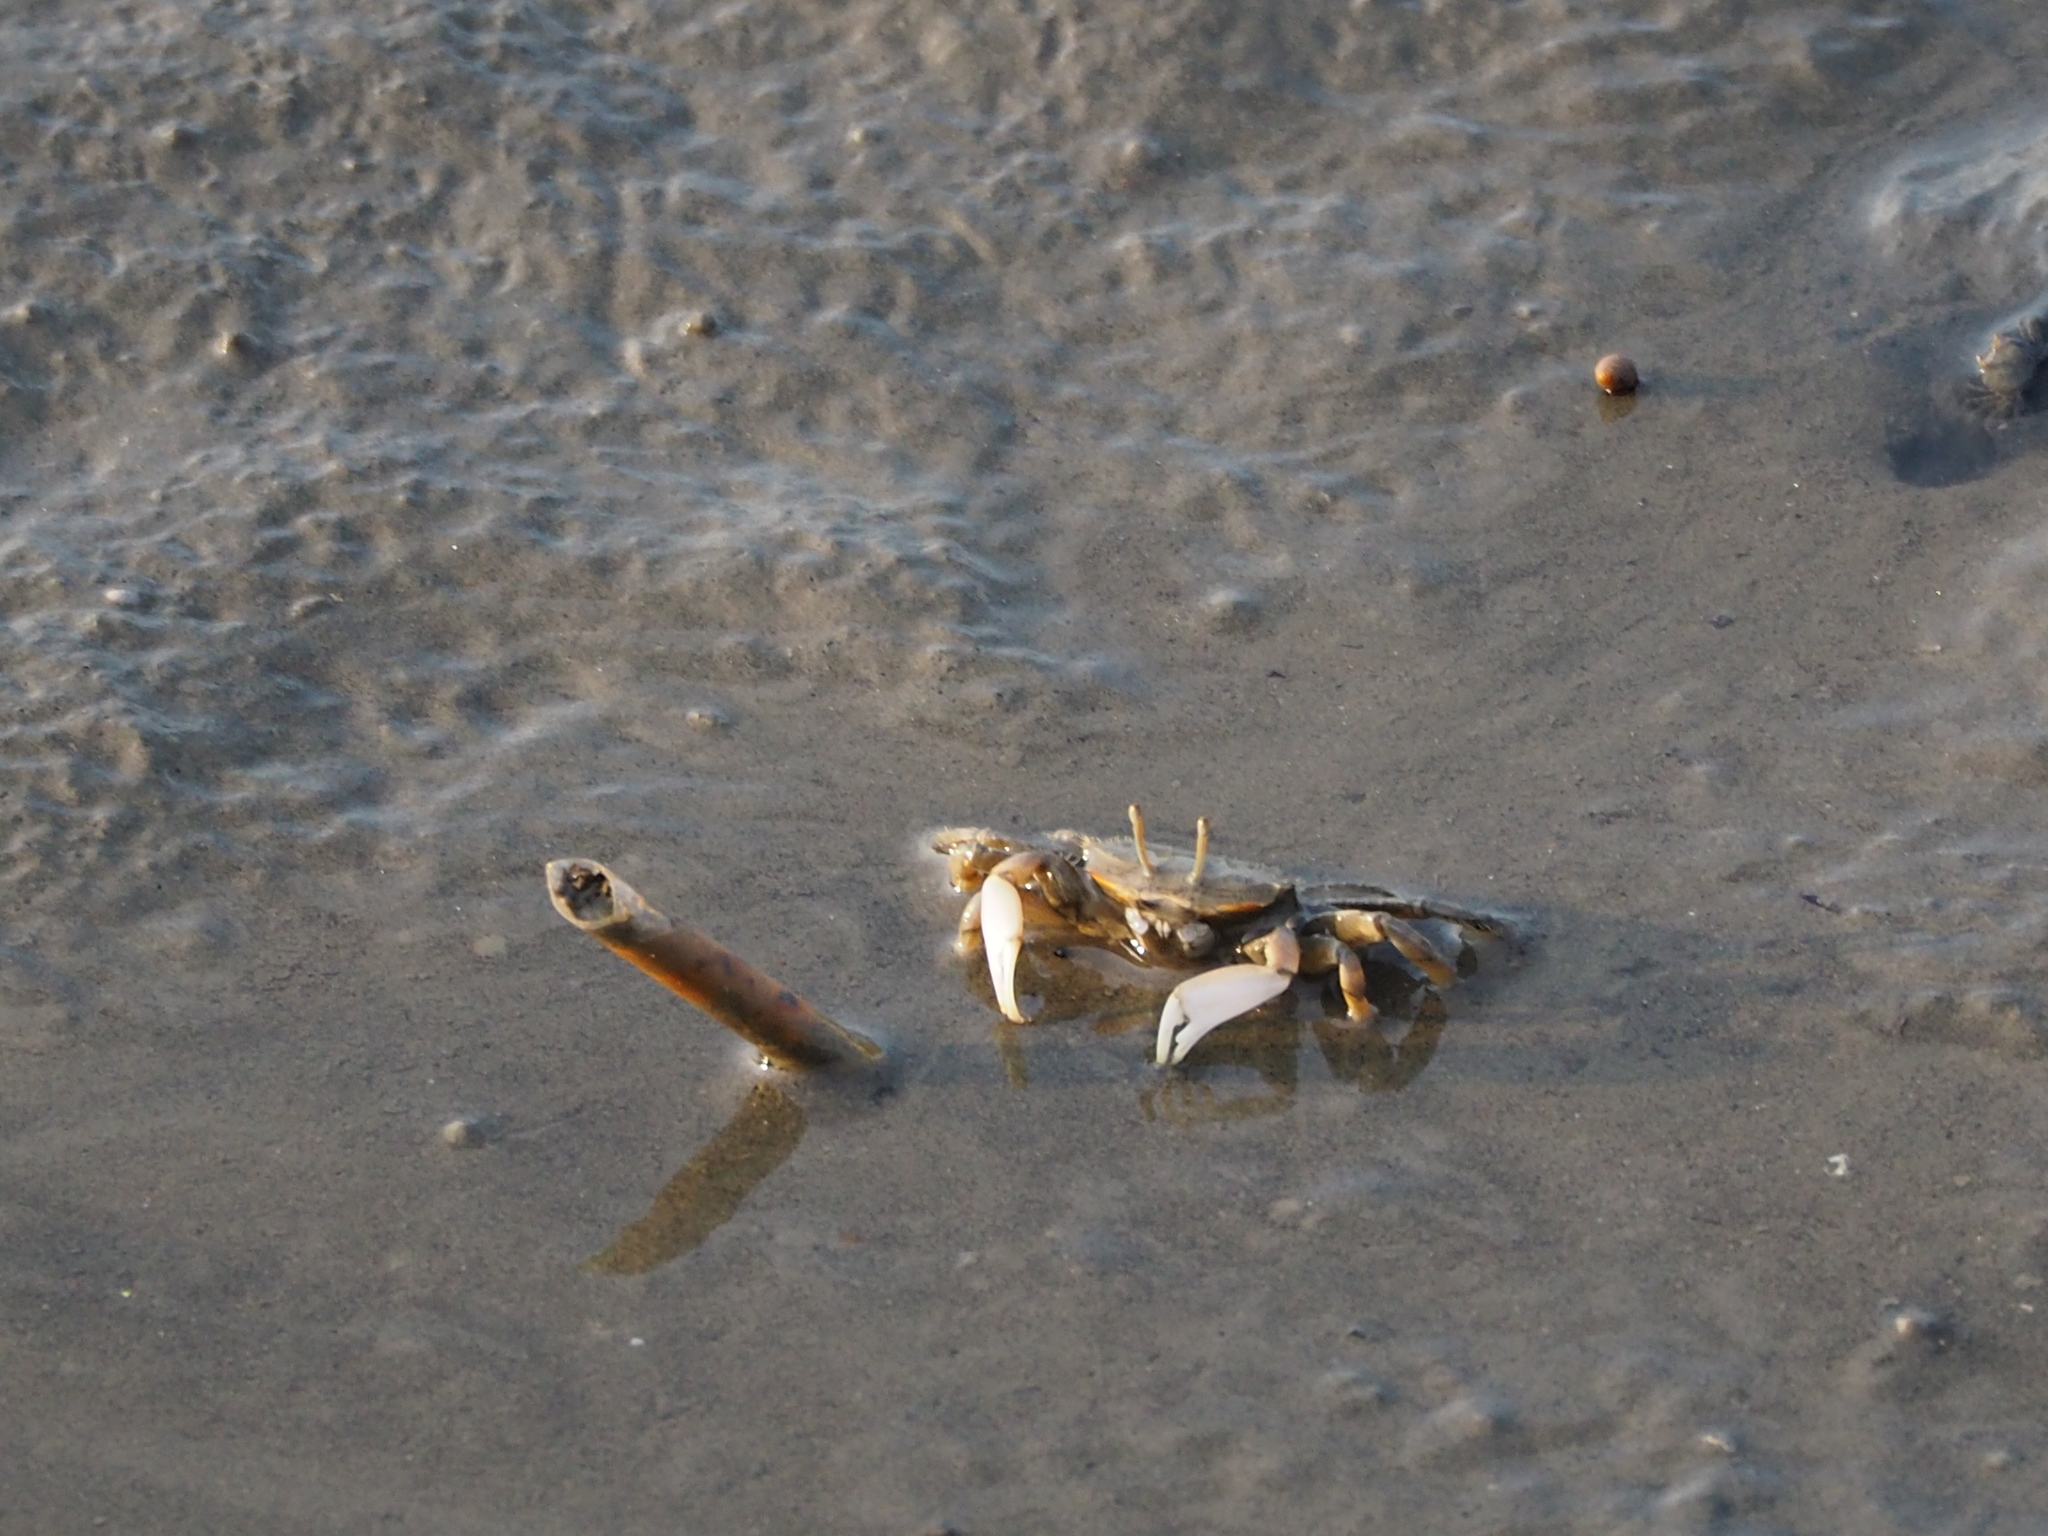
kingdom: Animalia
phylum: Arthropoda
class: Malacostraca
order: Decapoda
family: Macrophthalmidae
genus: Macrophthalmus
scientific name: Macrophthalmus banzai
